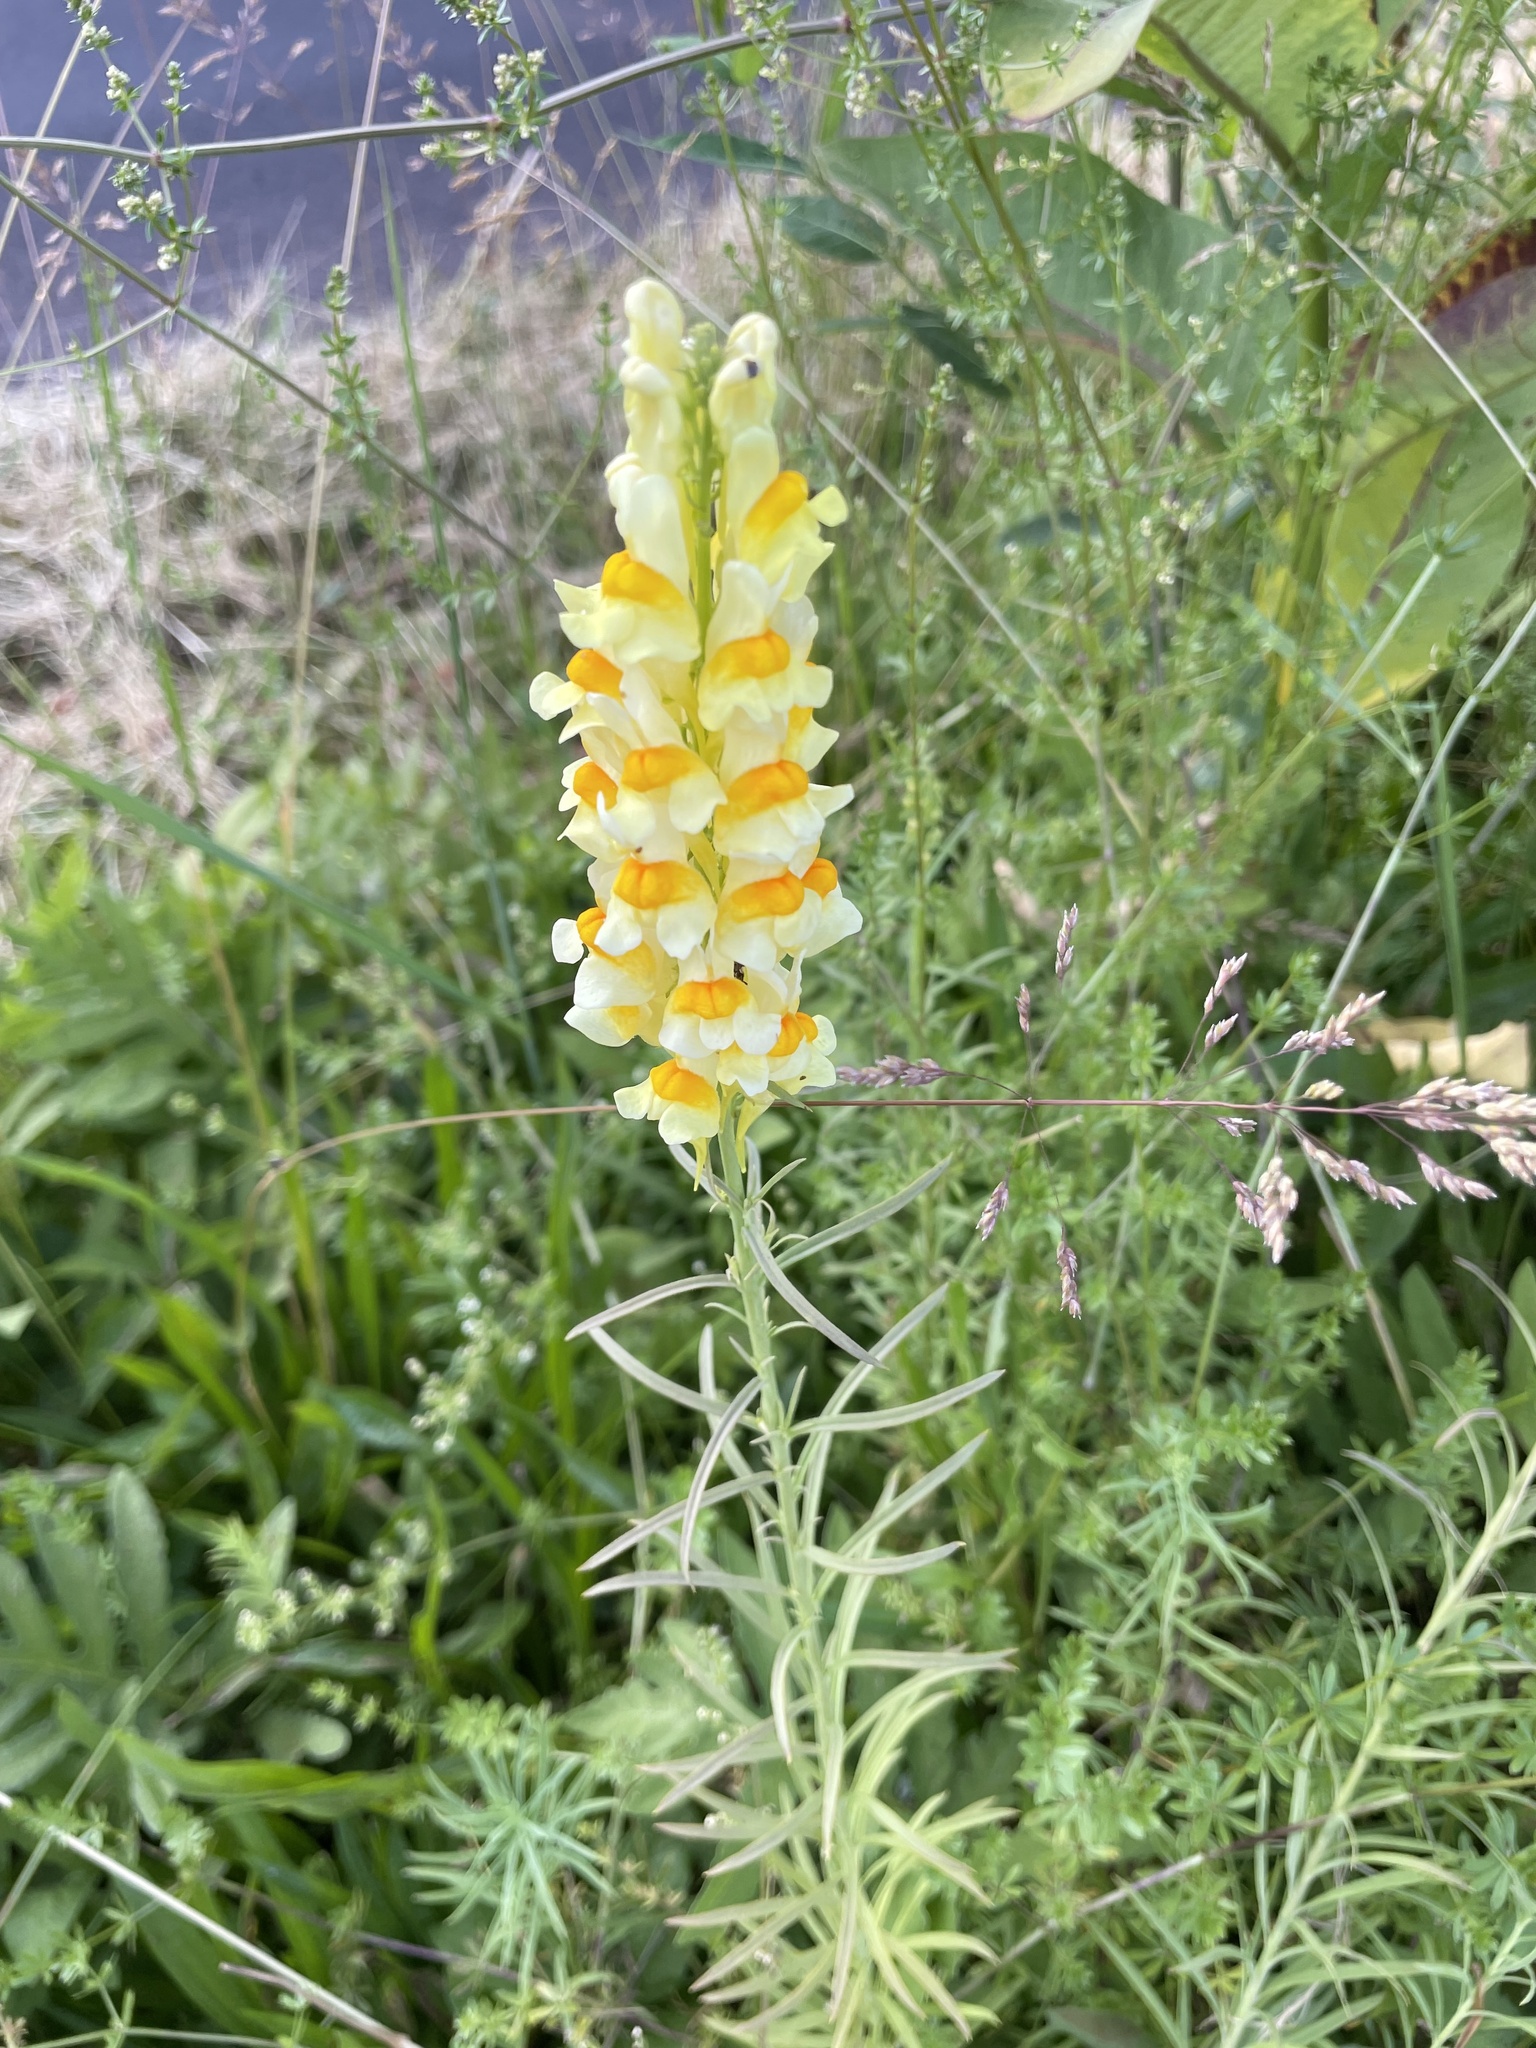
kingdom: Plantae
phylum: Tracheophyta
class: Magnoliopsida
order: Lamiales
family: Plantaginaceae
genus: Linaria
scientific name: Linaria vulgaris
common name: Butter and eggs
